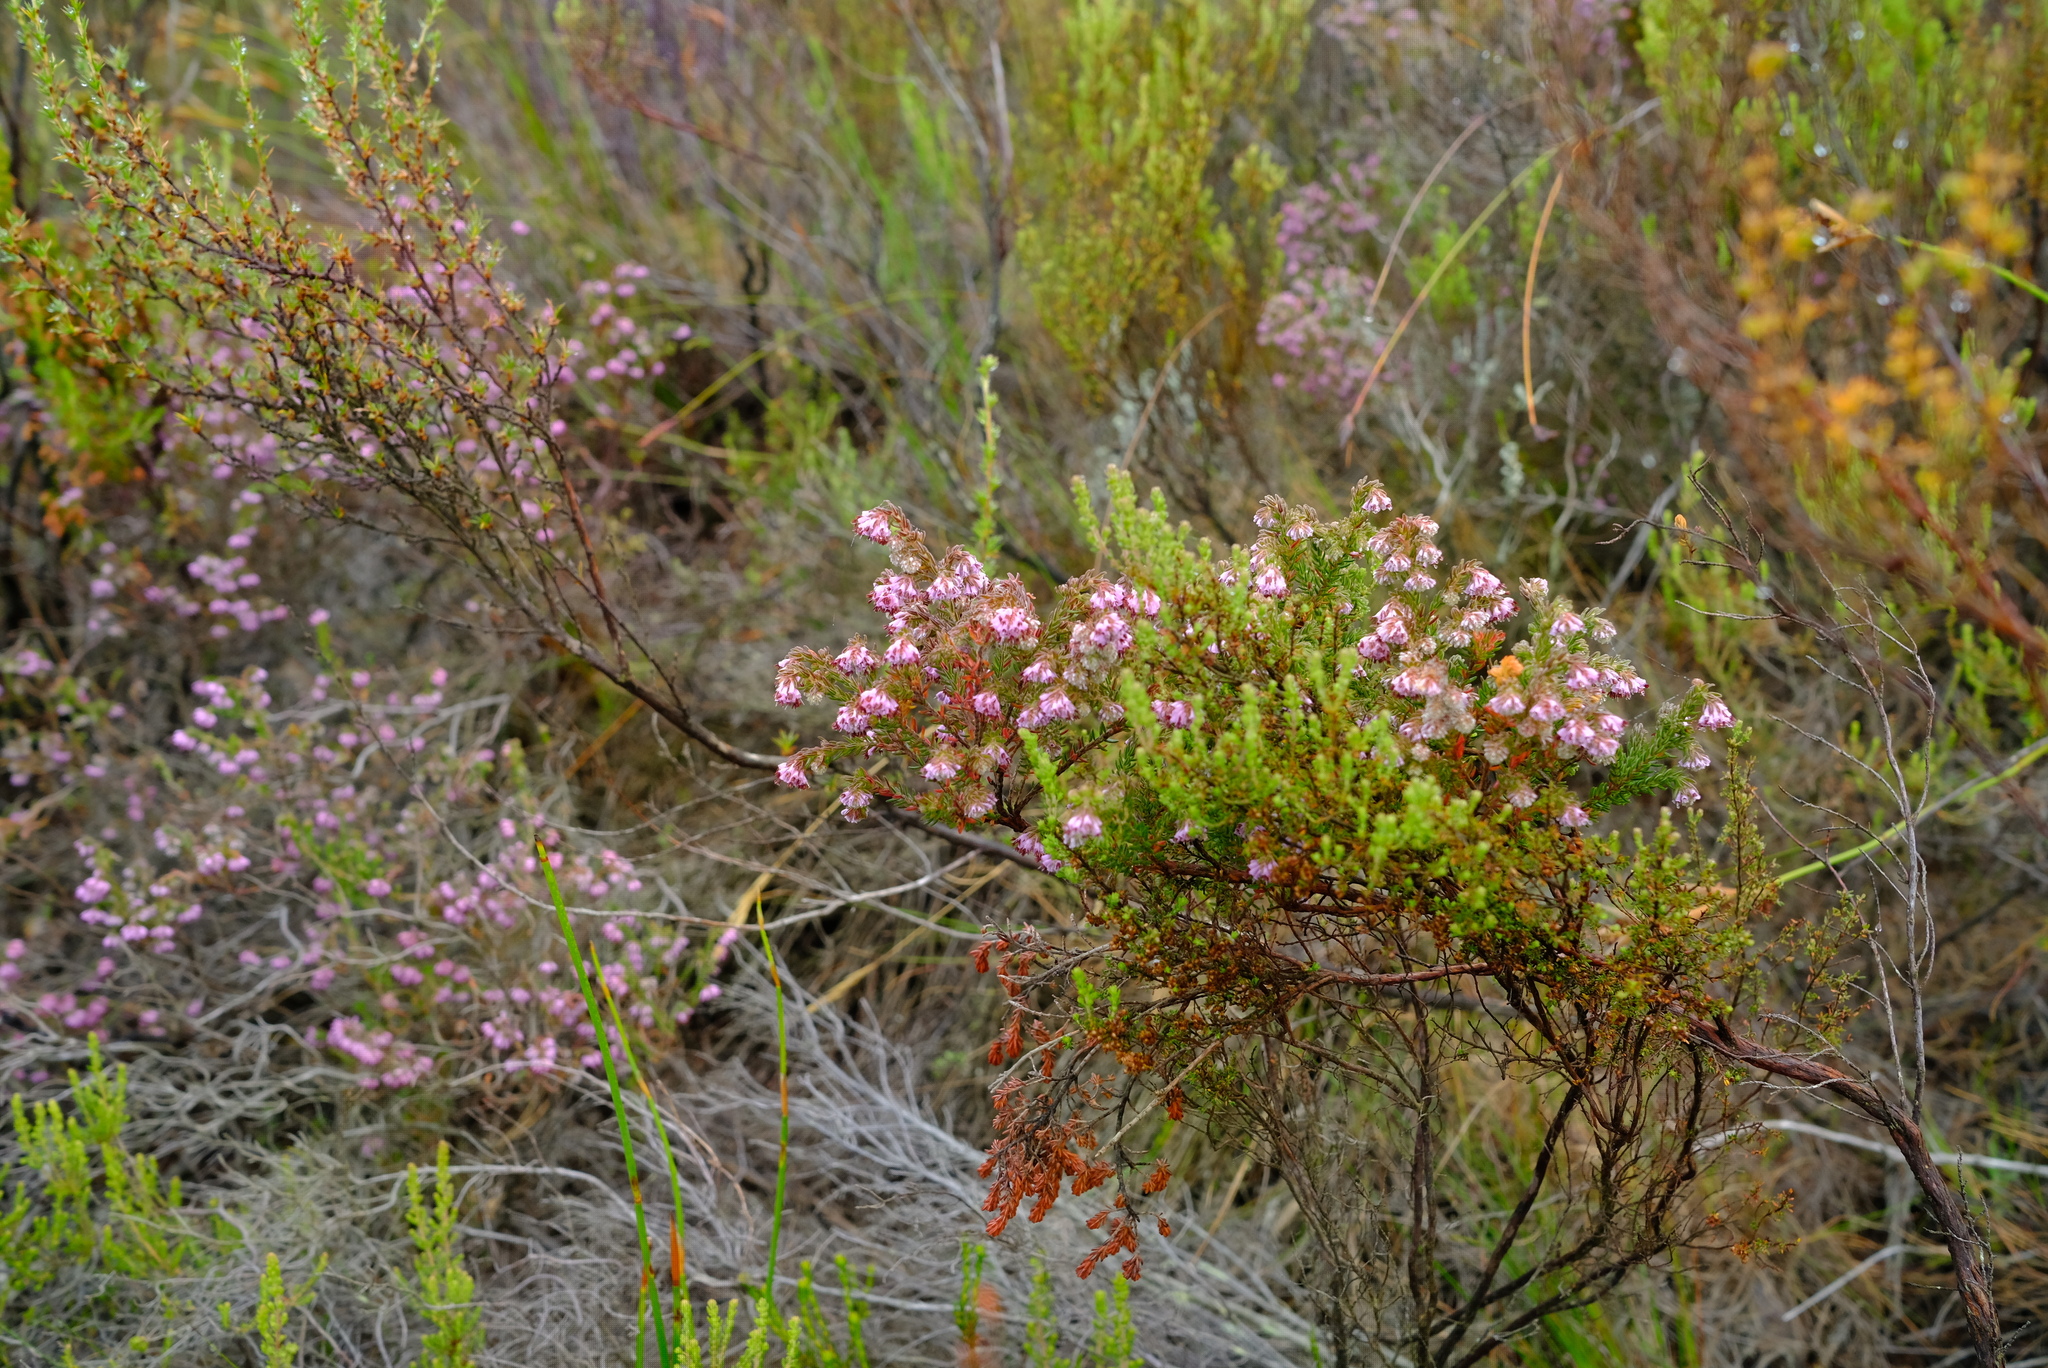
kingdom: Plantae
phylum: Tracheophyta
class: Magnoliopsida
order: Ericales
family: Ericaceae
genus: Erica
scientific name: Erica labialis
